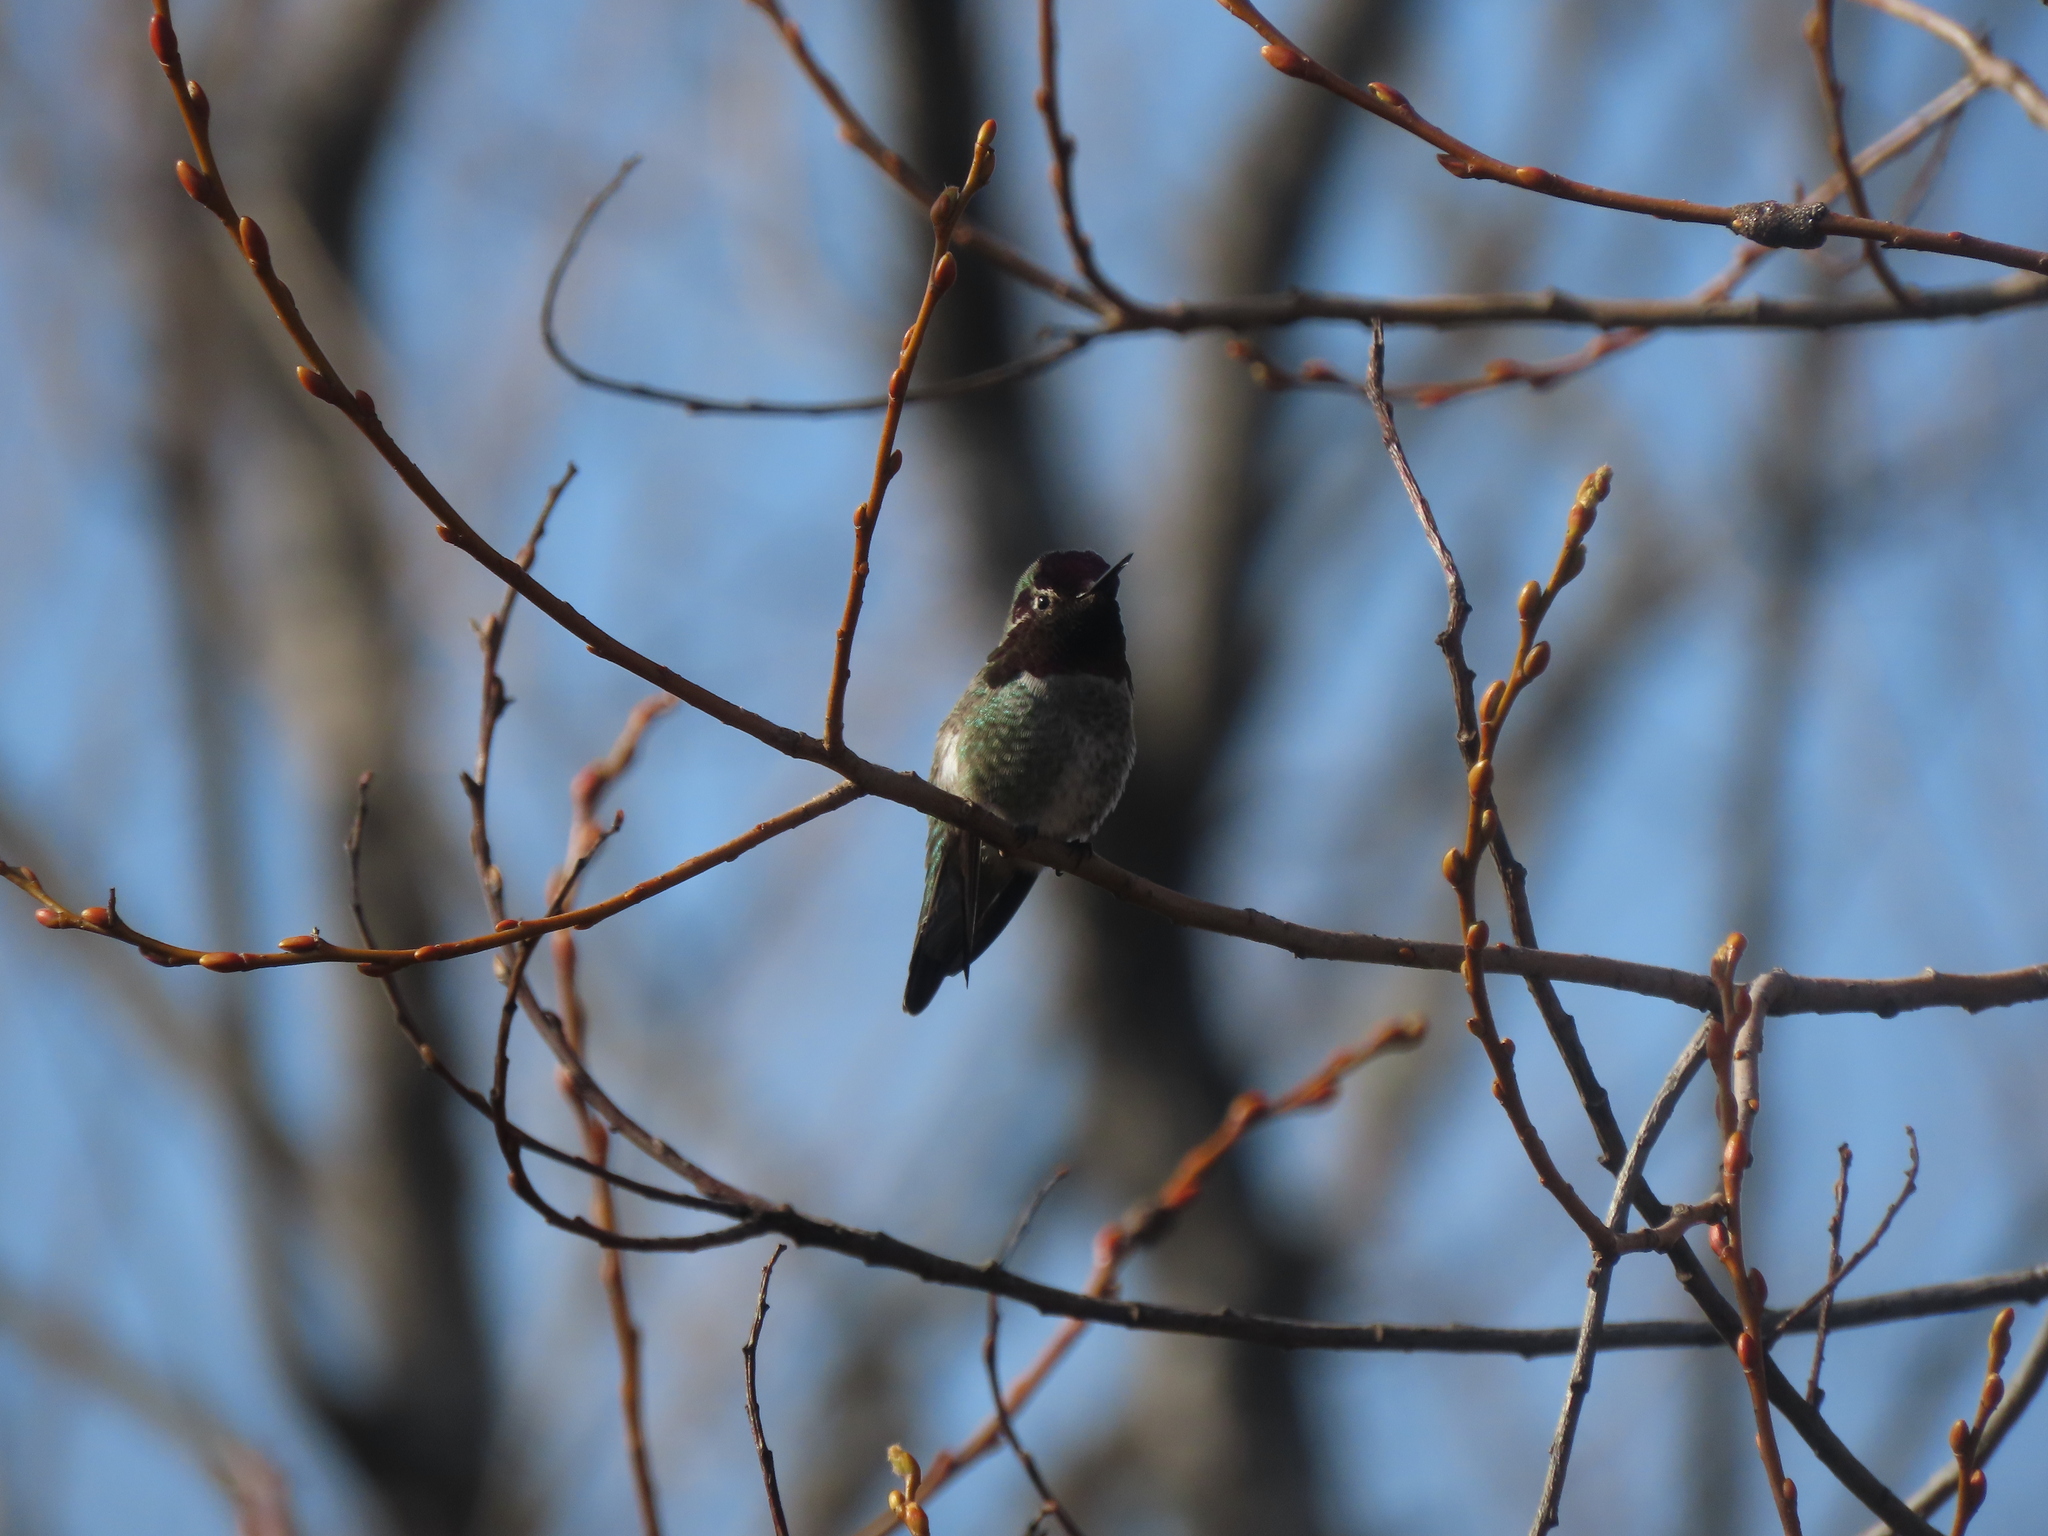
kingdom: Animalia
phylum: Chordata
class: Aves
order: Apodiformes
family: Trochilidae
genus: Calypte
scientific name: Calypte anna
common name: Anna's hummingbird
